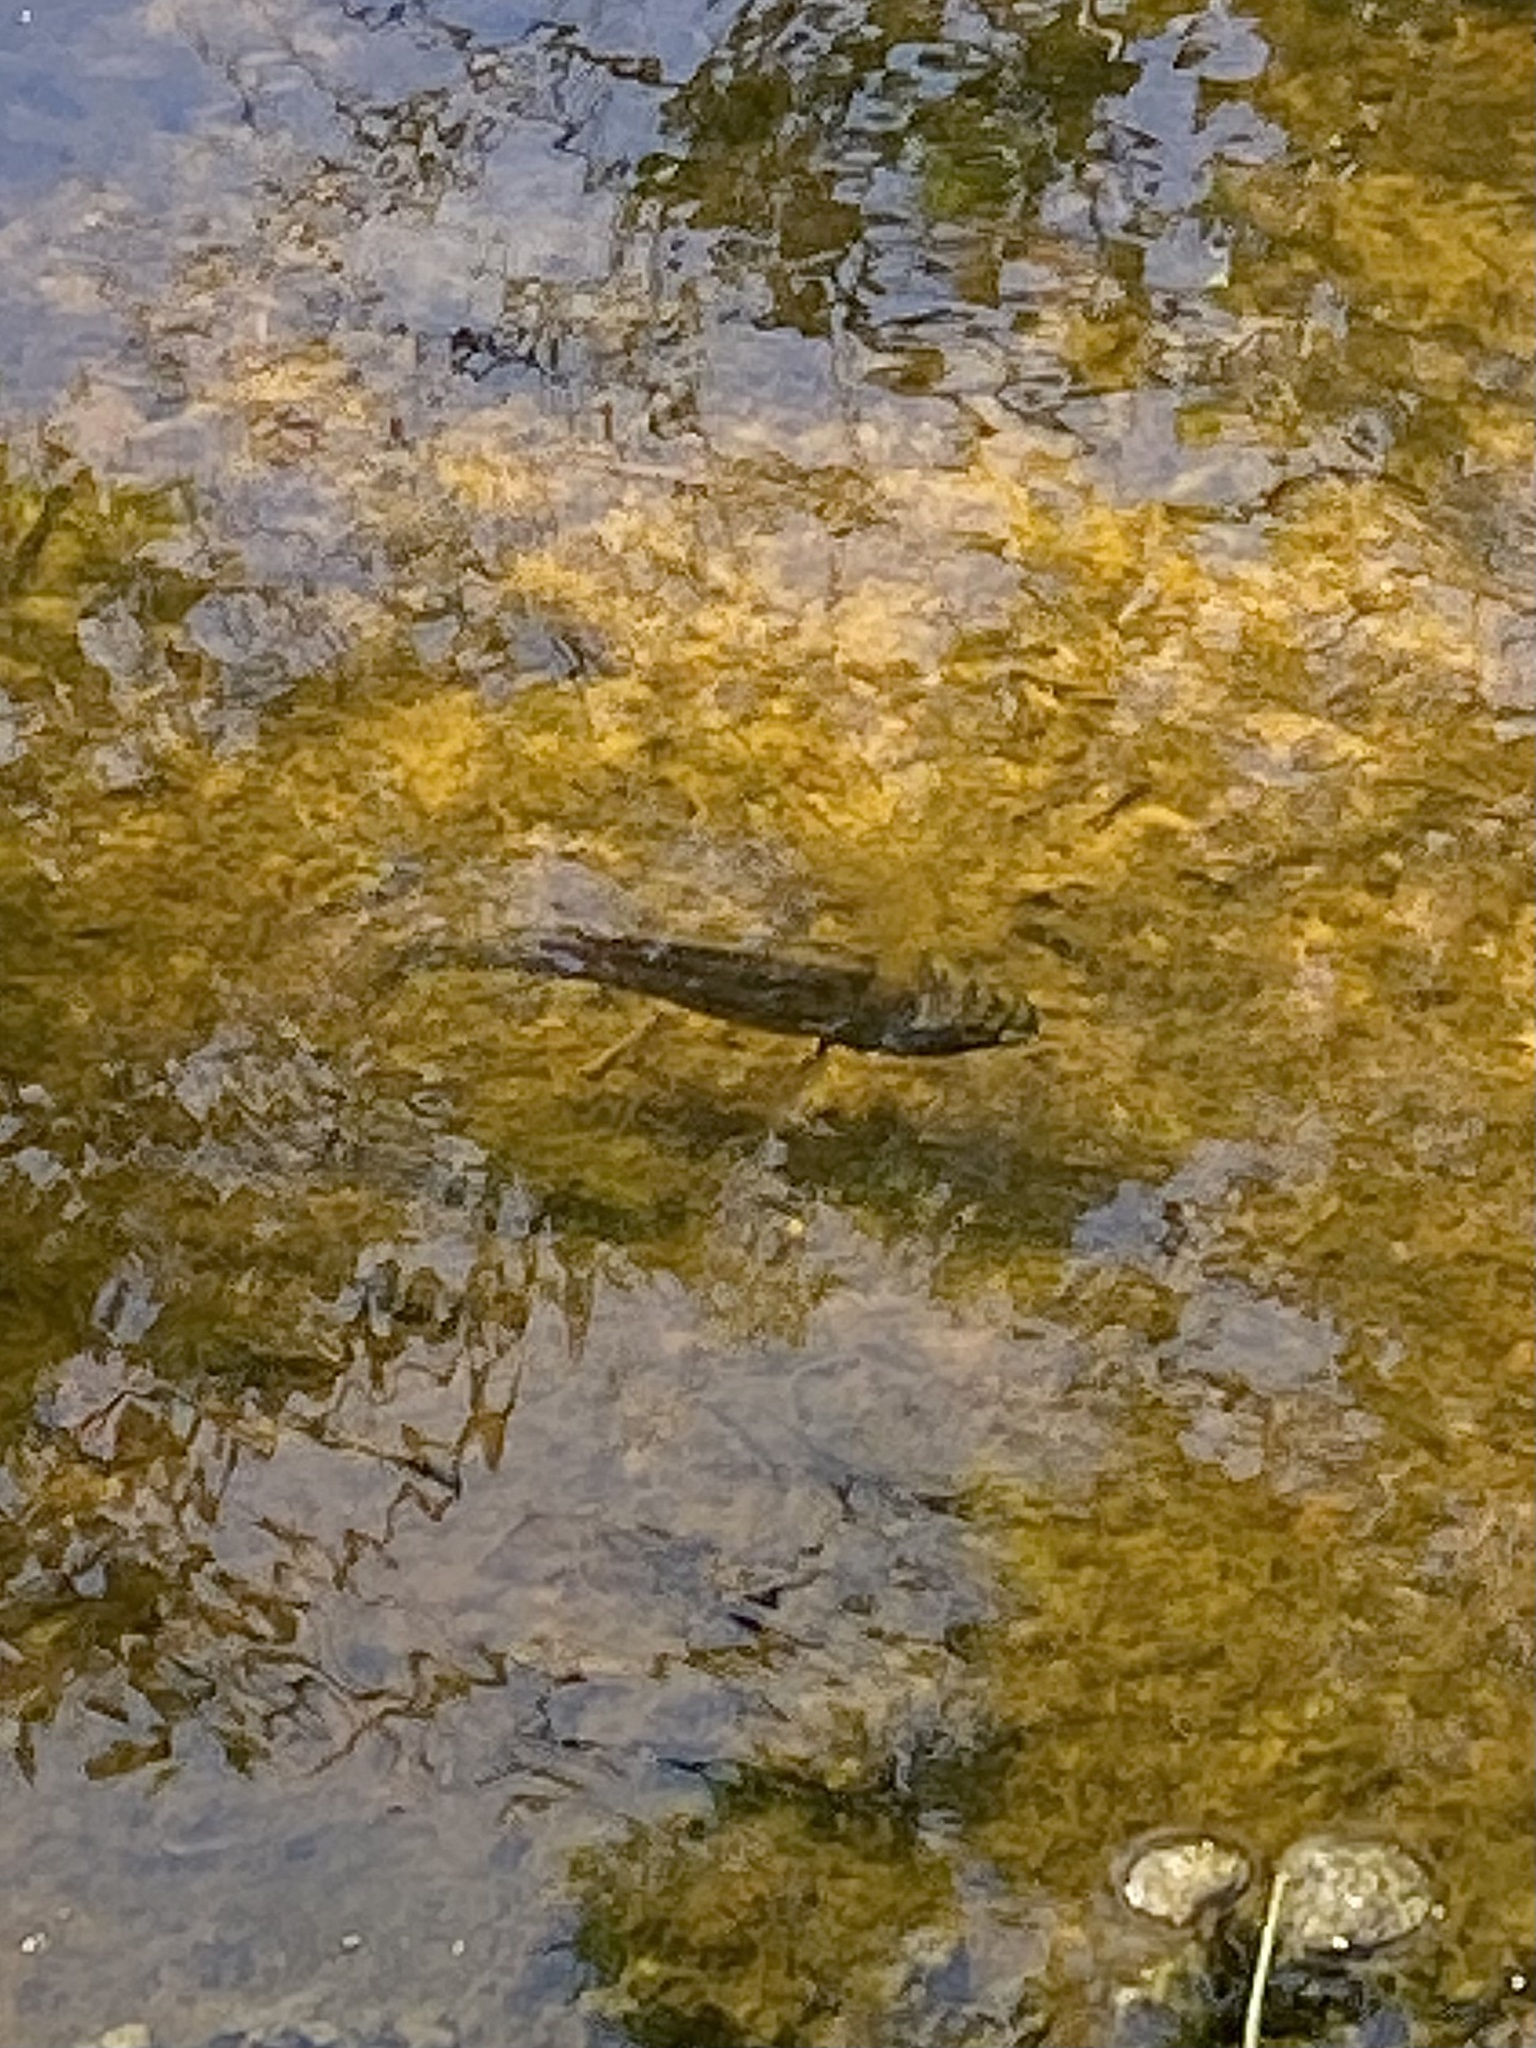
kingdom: Animalia
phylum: Chordata
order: Perciformes
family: Cichlidae
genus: Oreochromis
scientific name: Oreochromis mossambicus
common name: Mozambique tilapia
